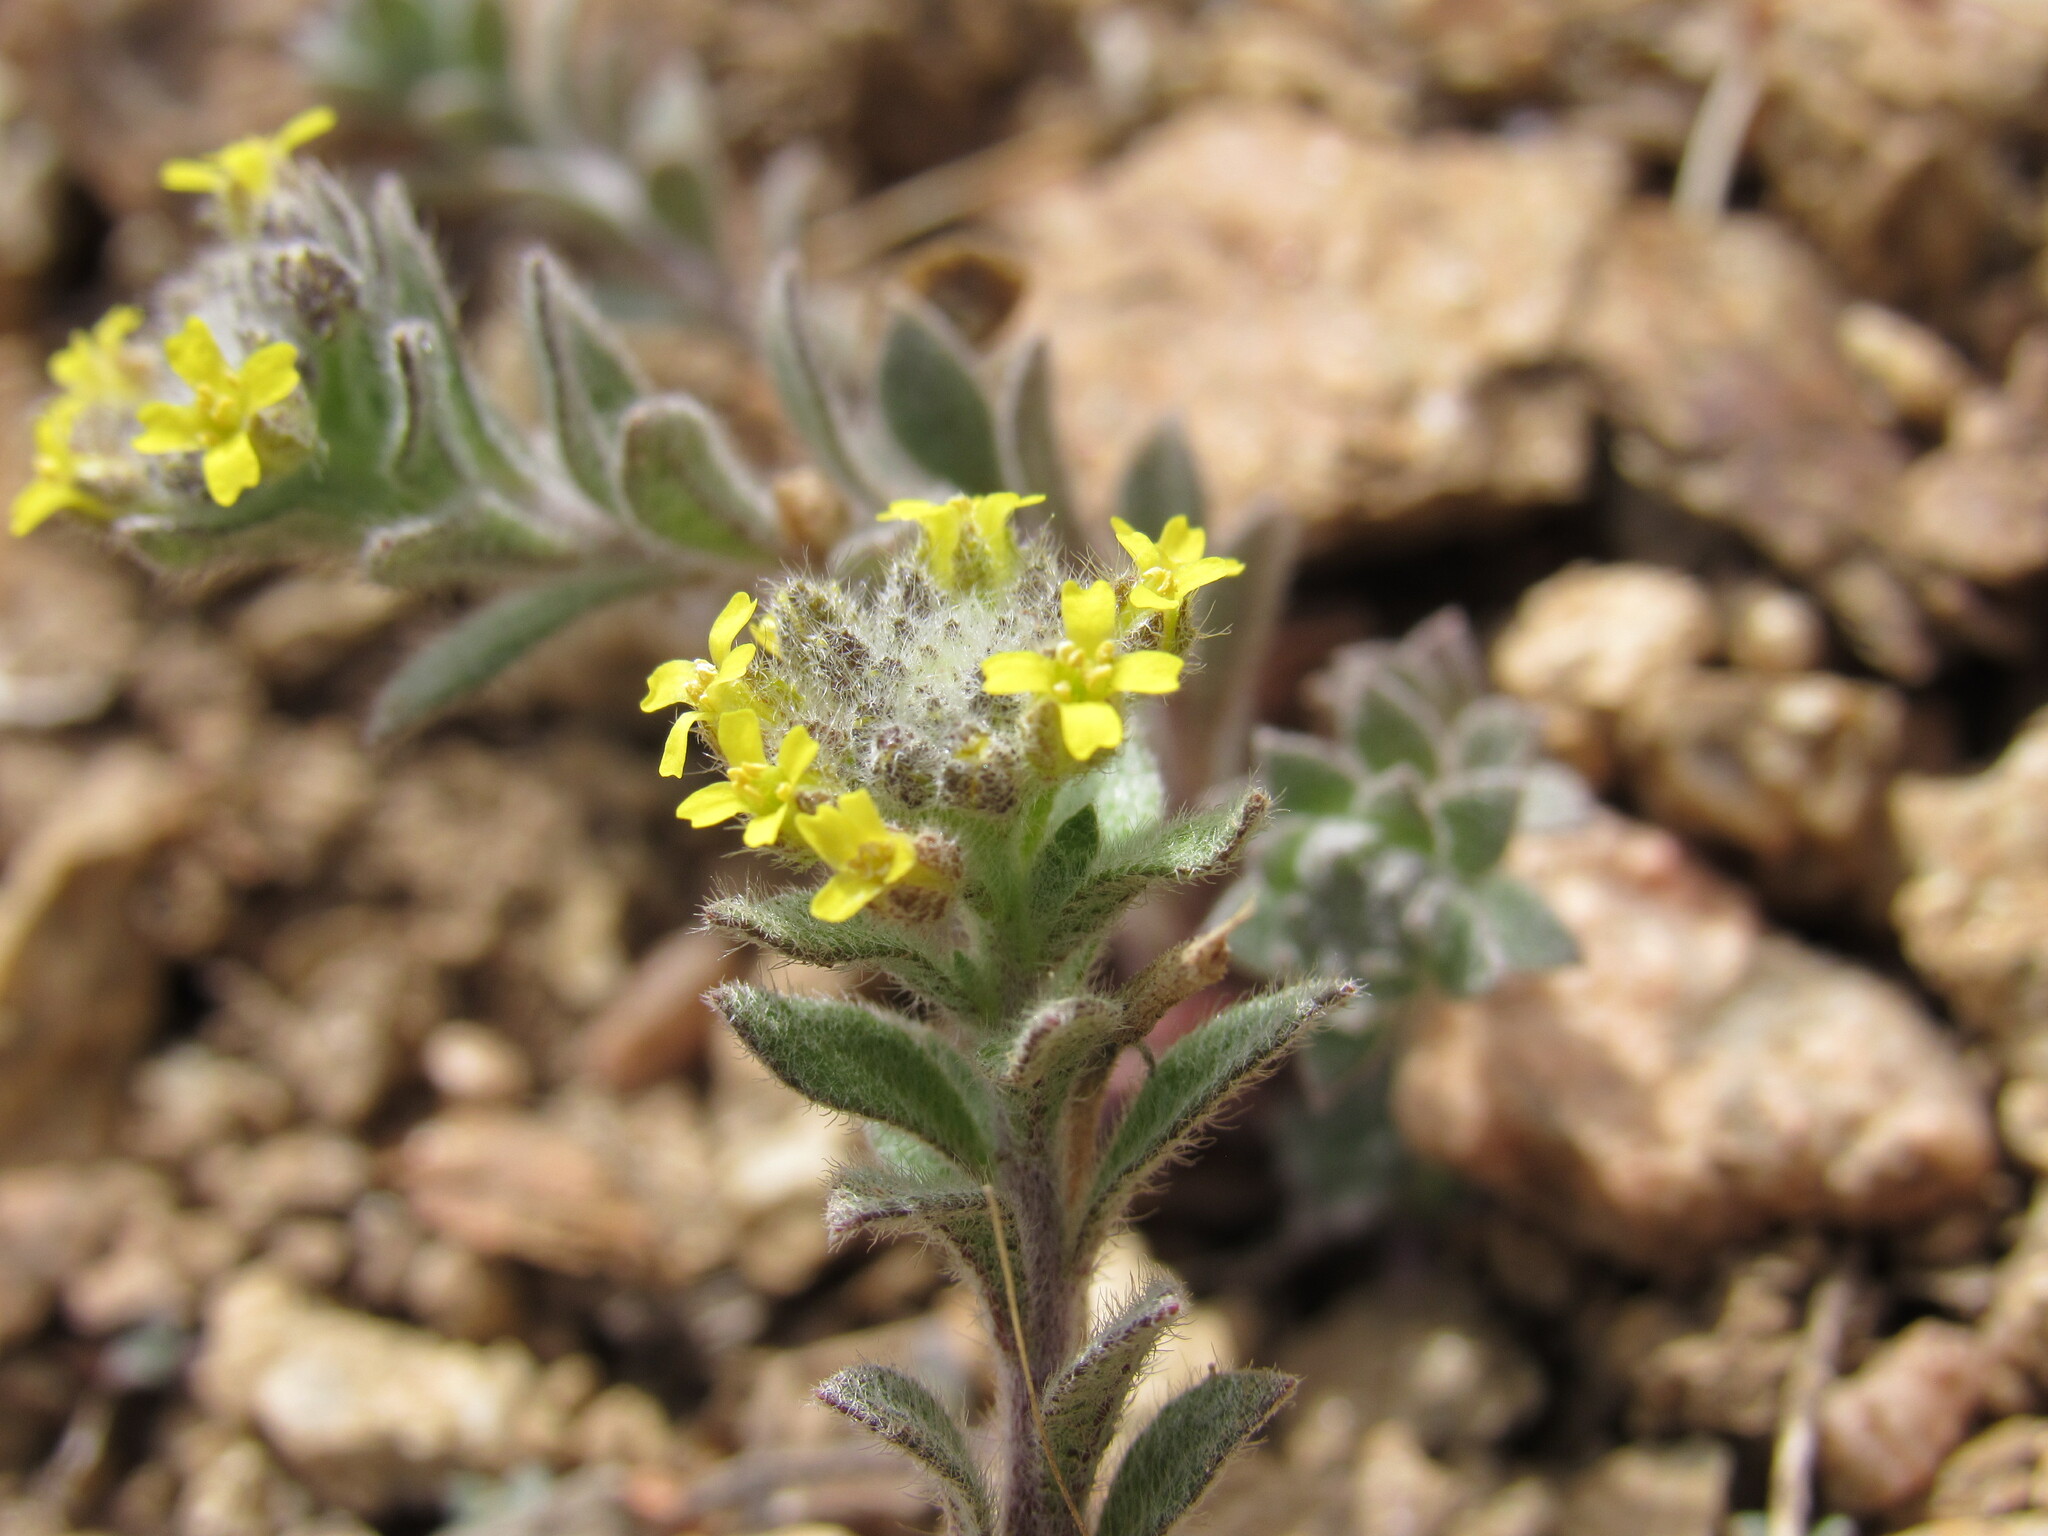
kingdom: Plantae
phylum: Tracheophyta
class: Magnoliopsida
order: Brassicales
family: Brassicaceae
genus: Alyssum
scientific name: Alyssum simplex
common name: Alyssum
